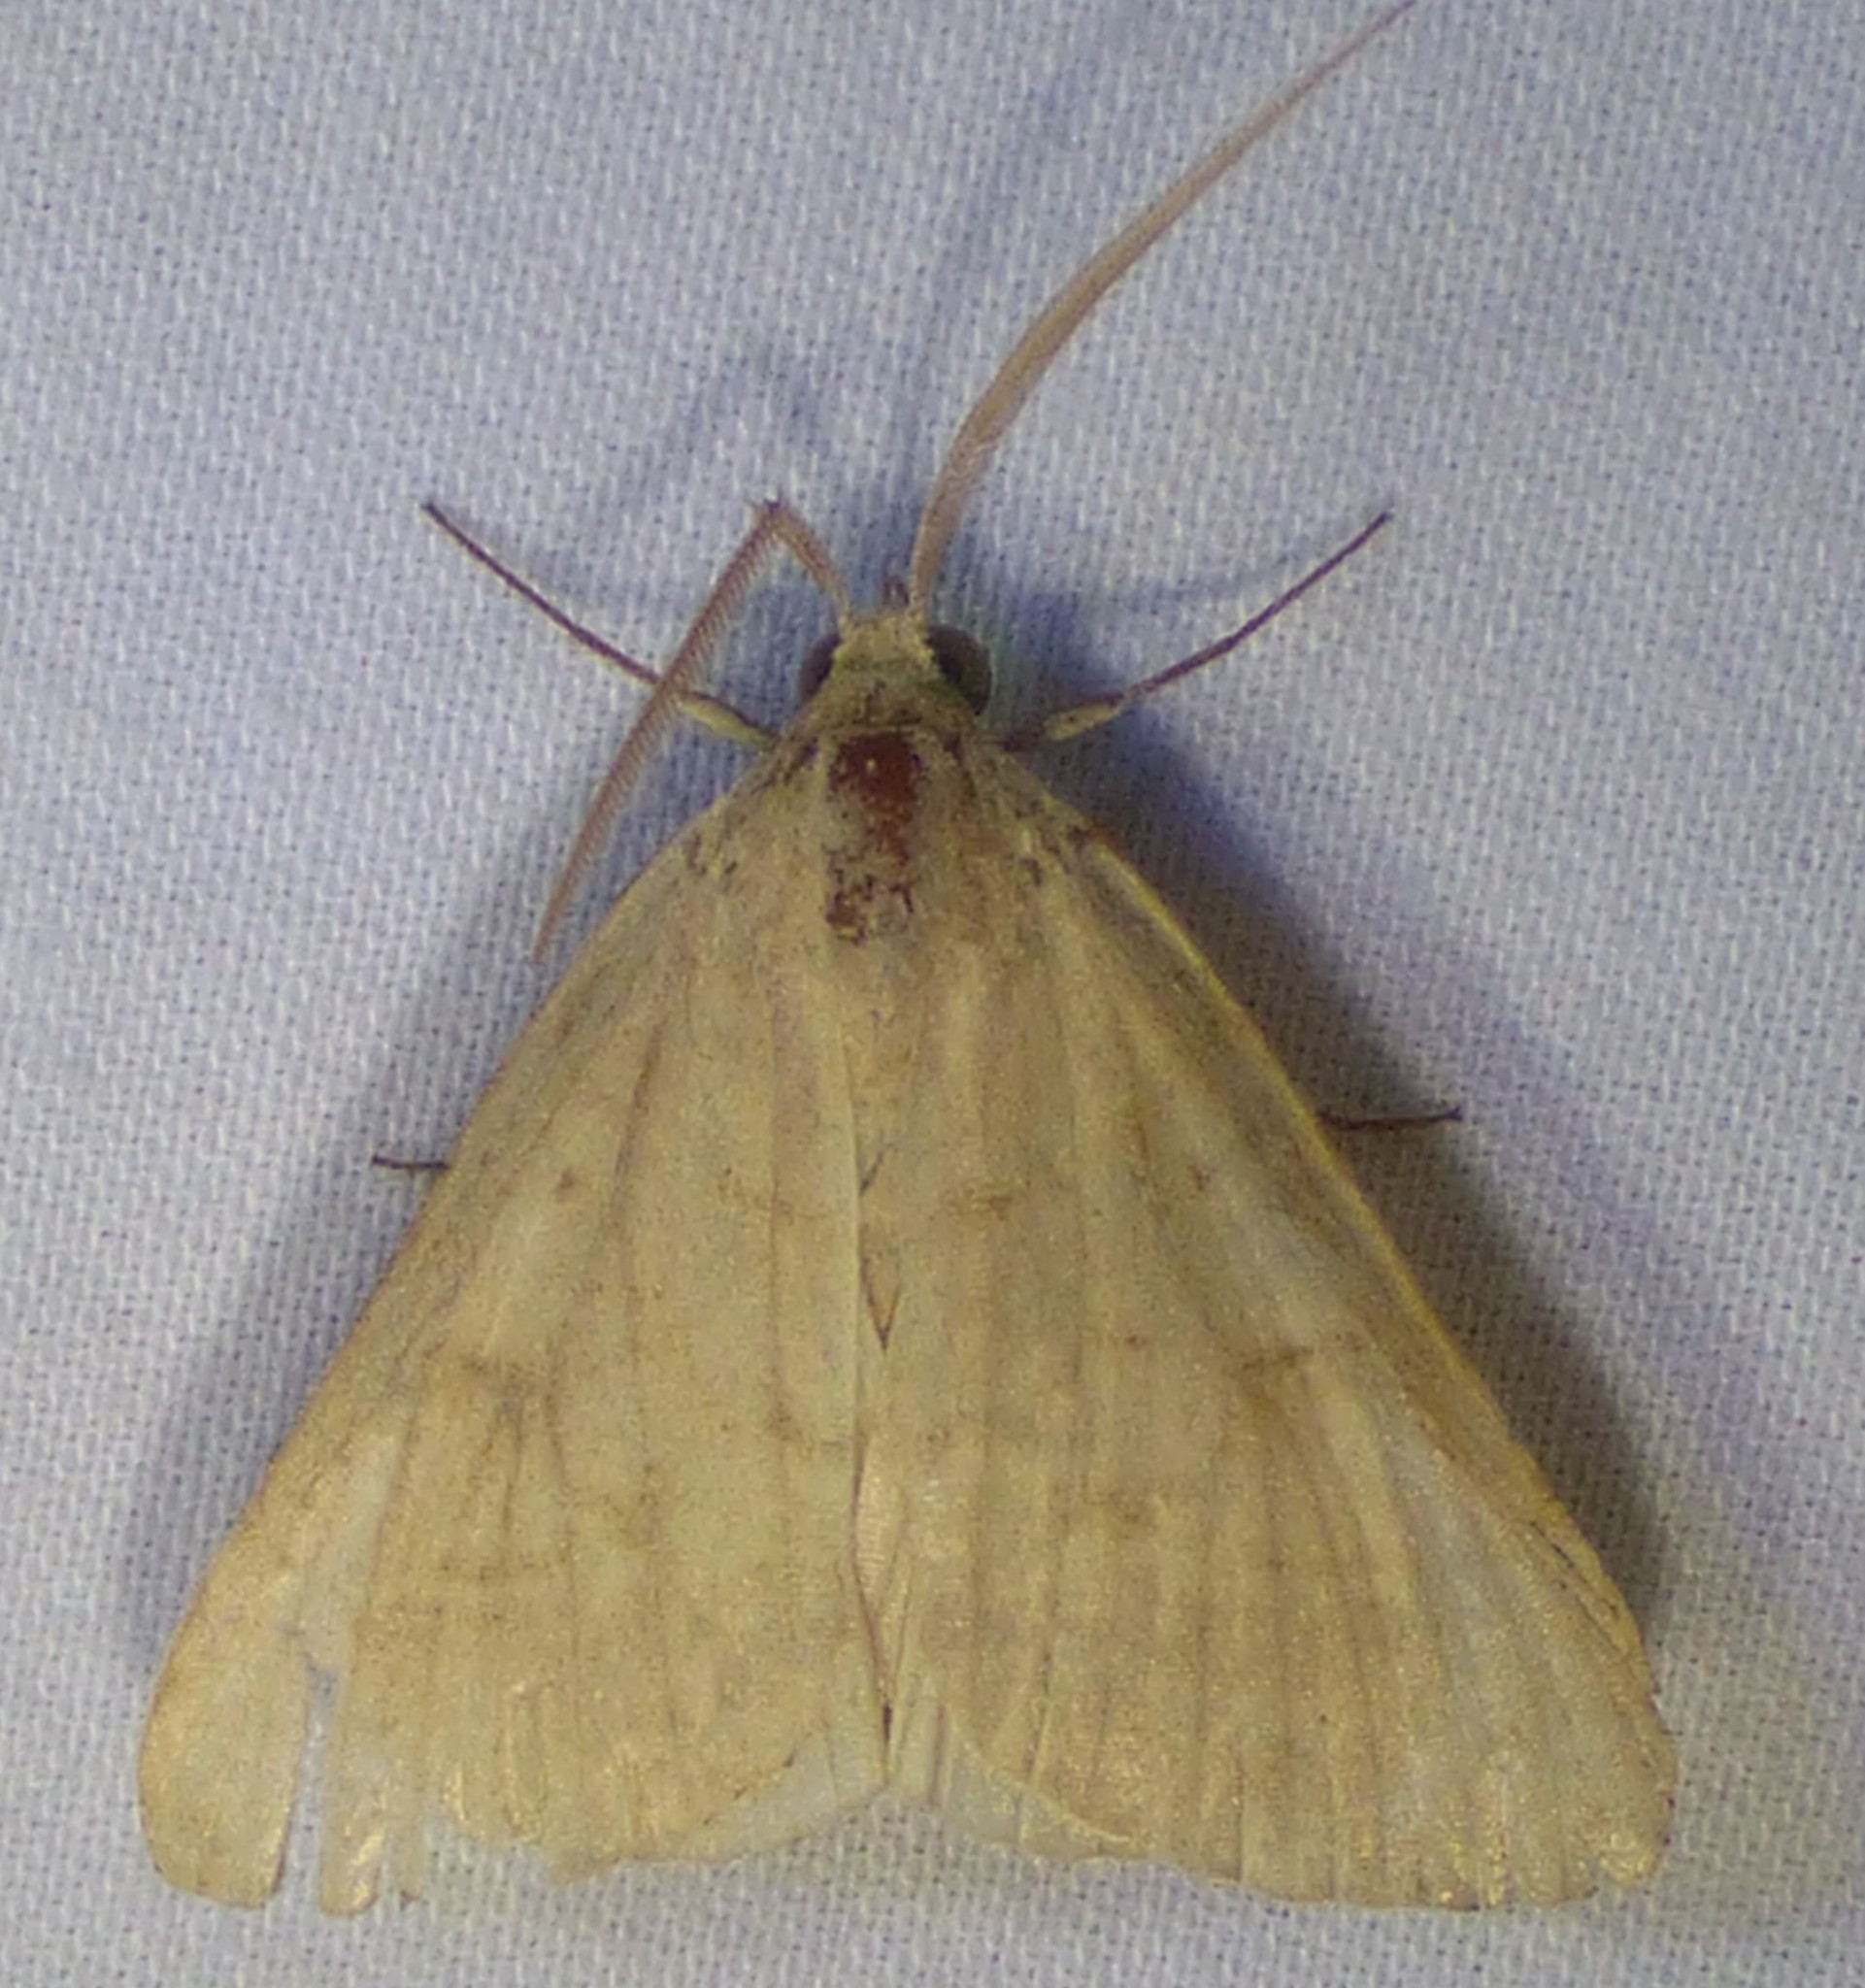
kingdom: Animalia
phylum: Arthropoda
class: Insecta
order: Lepidoptera
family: Erebidae
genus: Caenurgia
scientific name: Caenurgia chloropha
